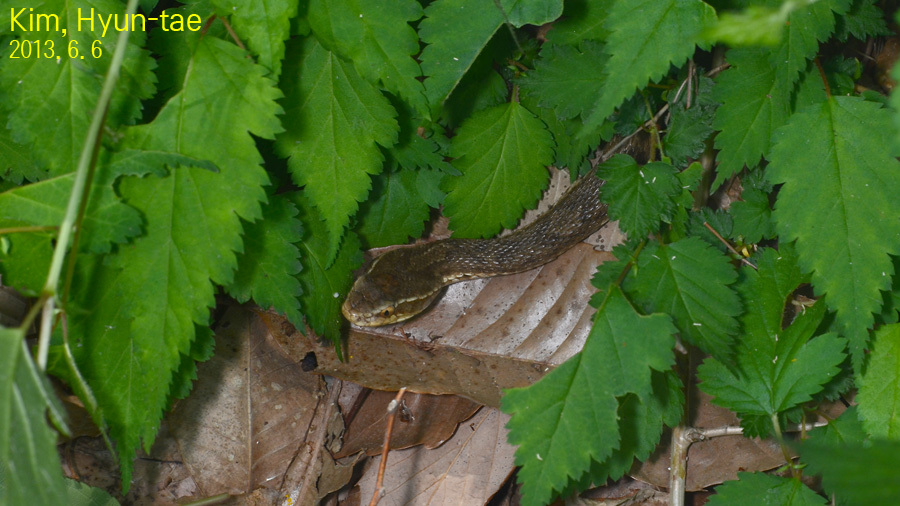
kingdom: Animalia
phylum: Chordata
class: Squamata
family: Viperidae
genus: Gloydius
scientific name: Gloydius ussuriensis
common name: Ussuri mamushi
